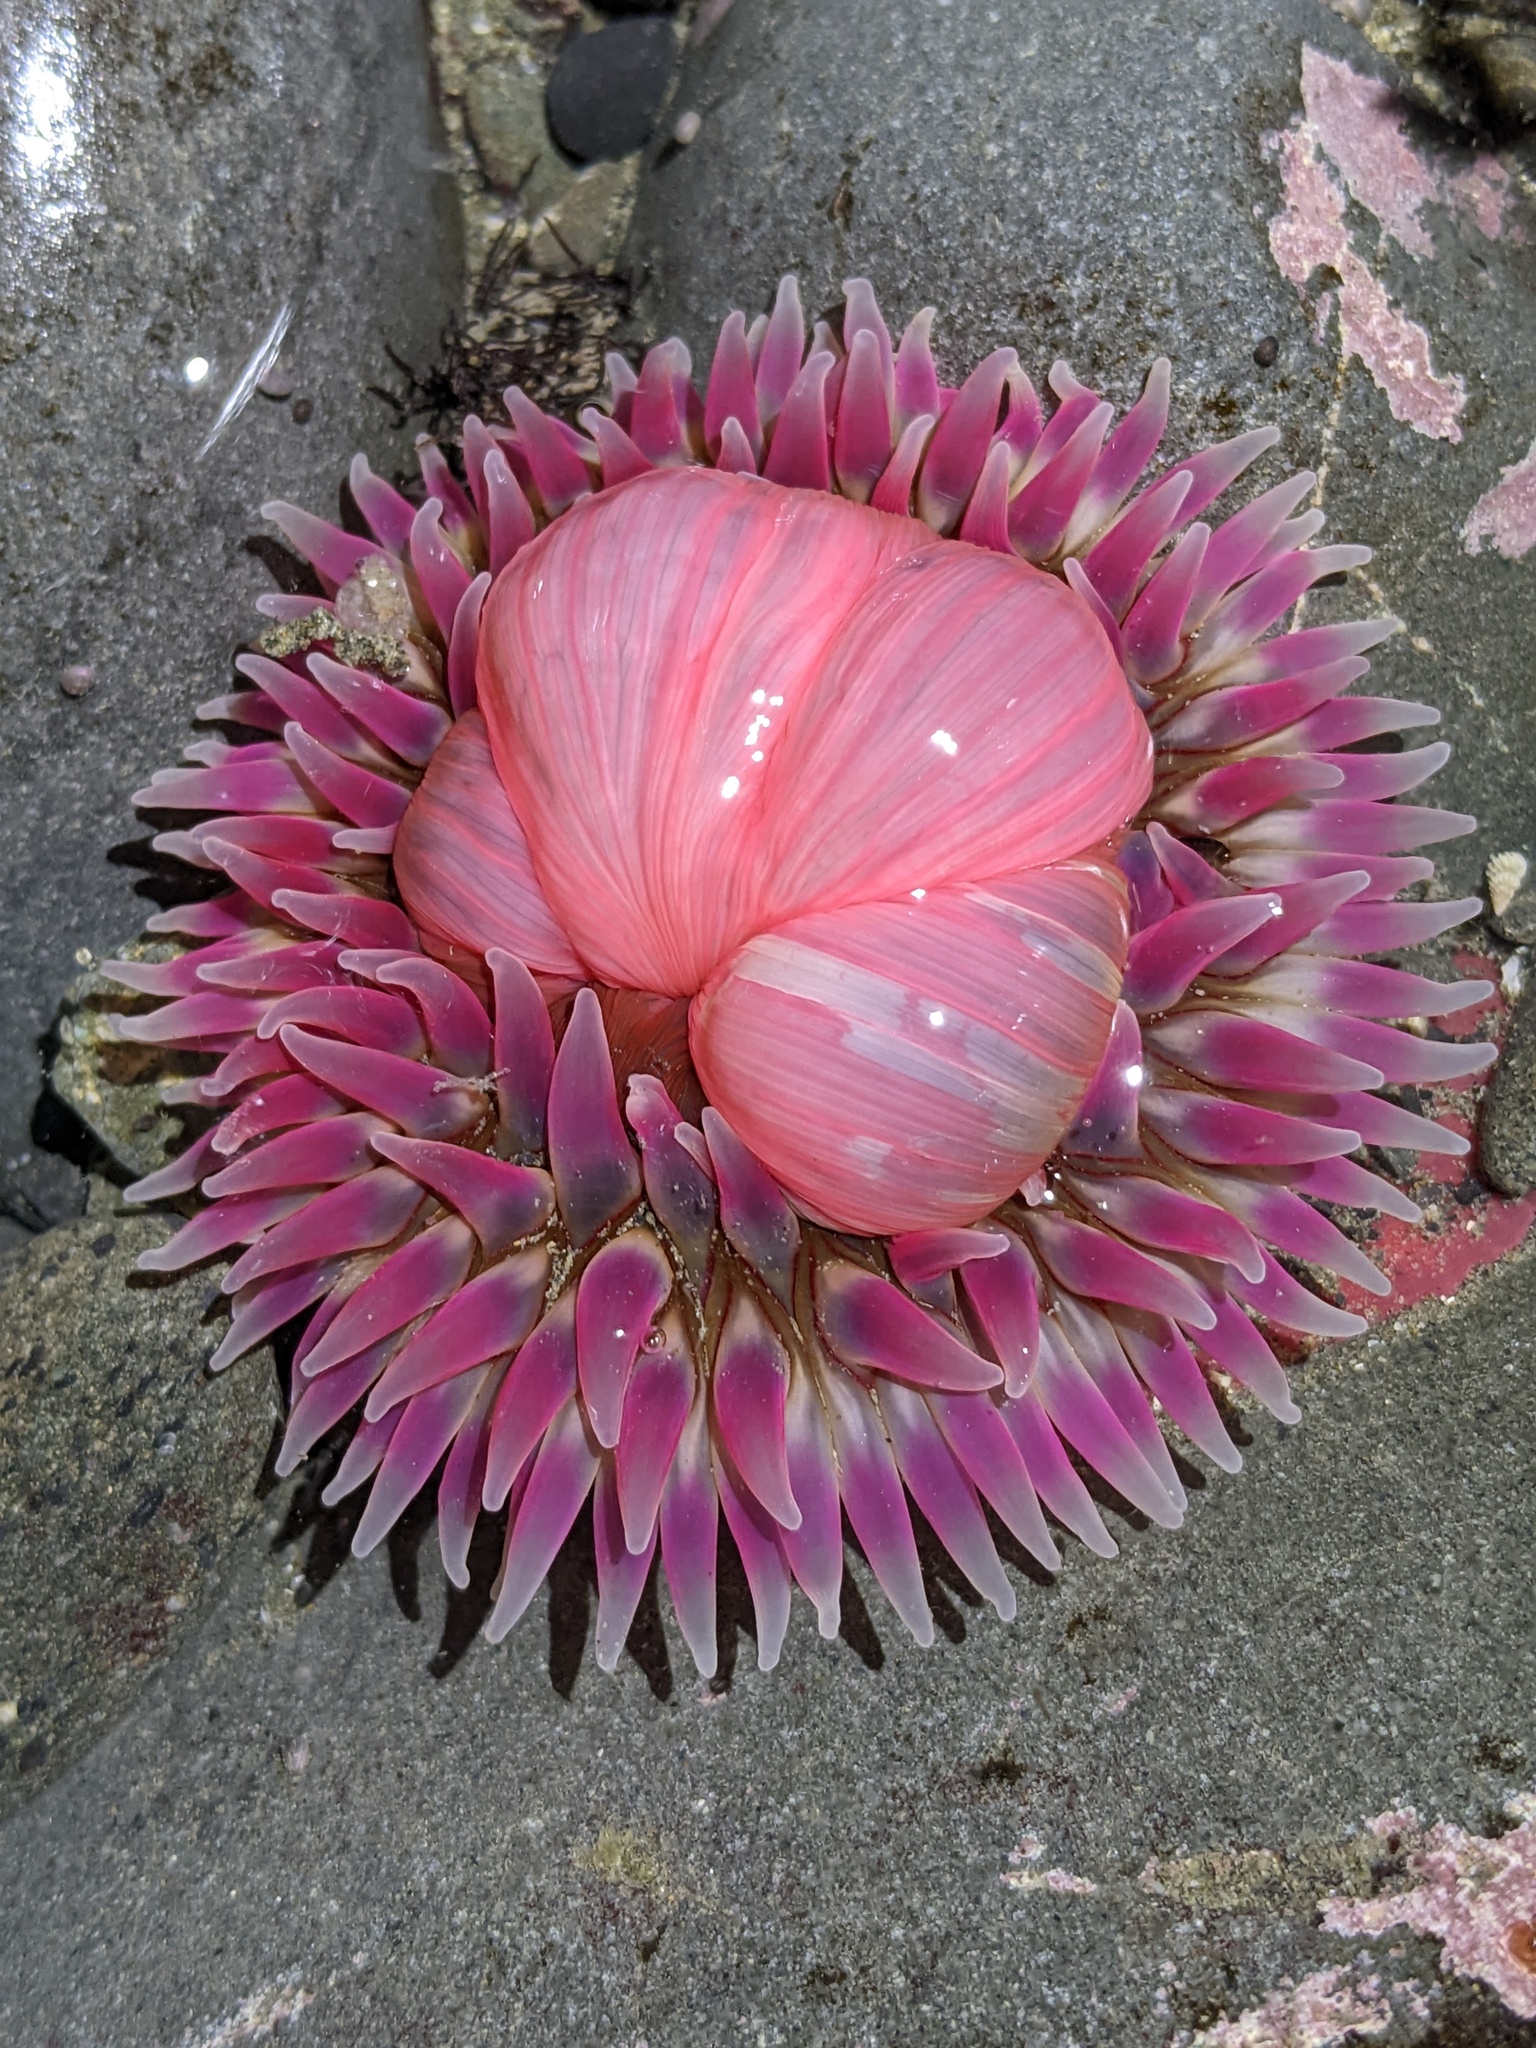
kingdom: Animalia
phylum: Cnidaria
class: Anthozoa
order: Actiniaria
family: Actiniidae
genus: Urticina
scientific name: Urticina clandestina
